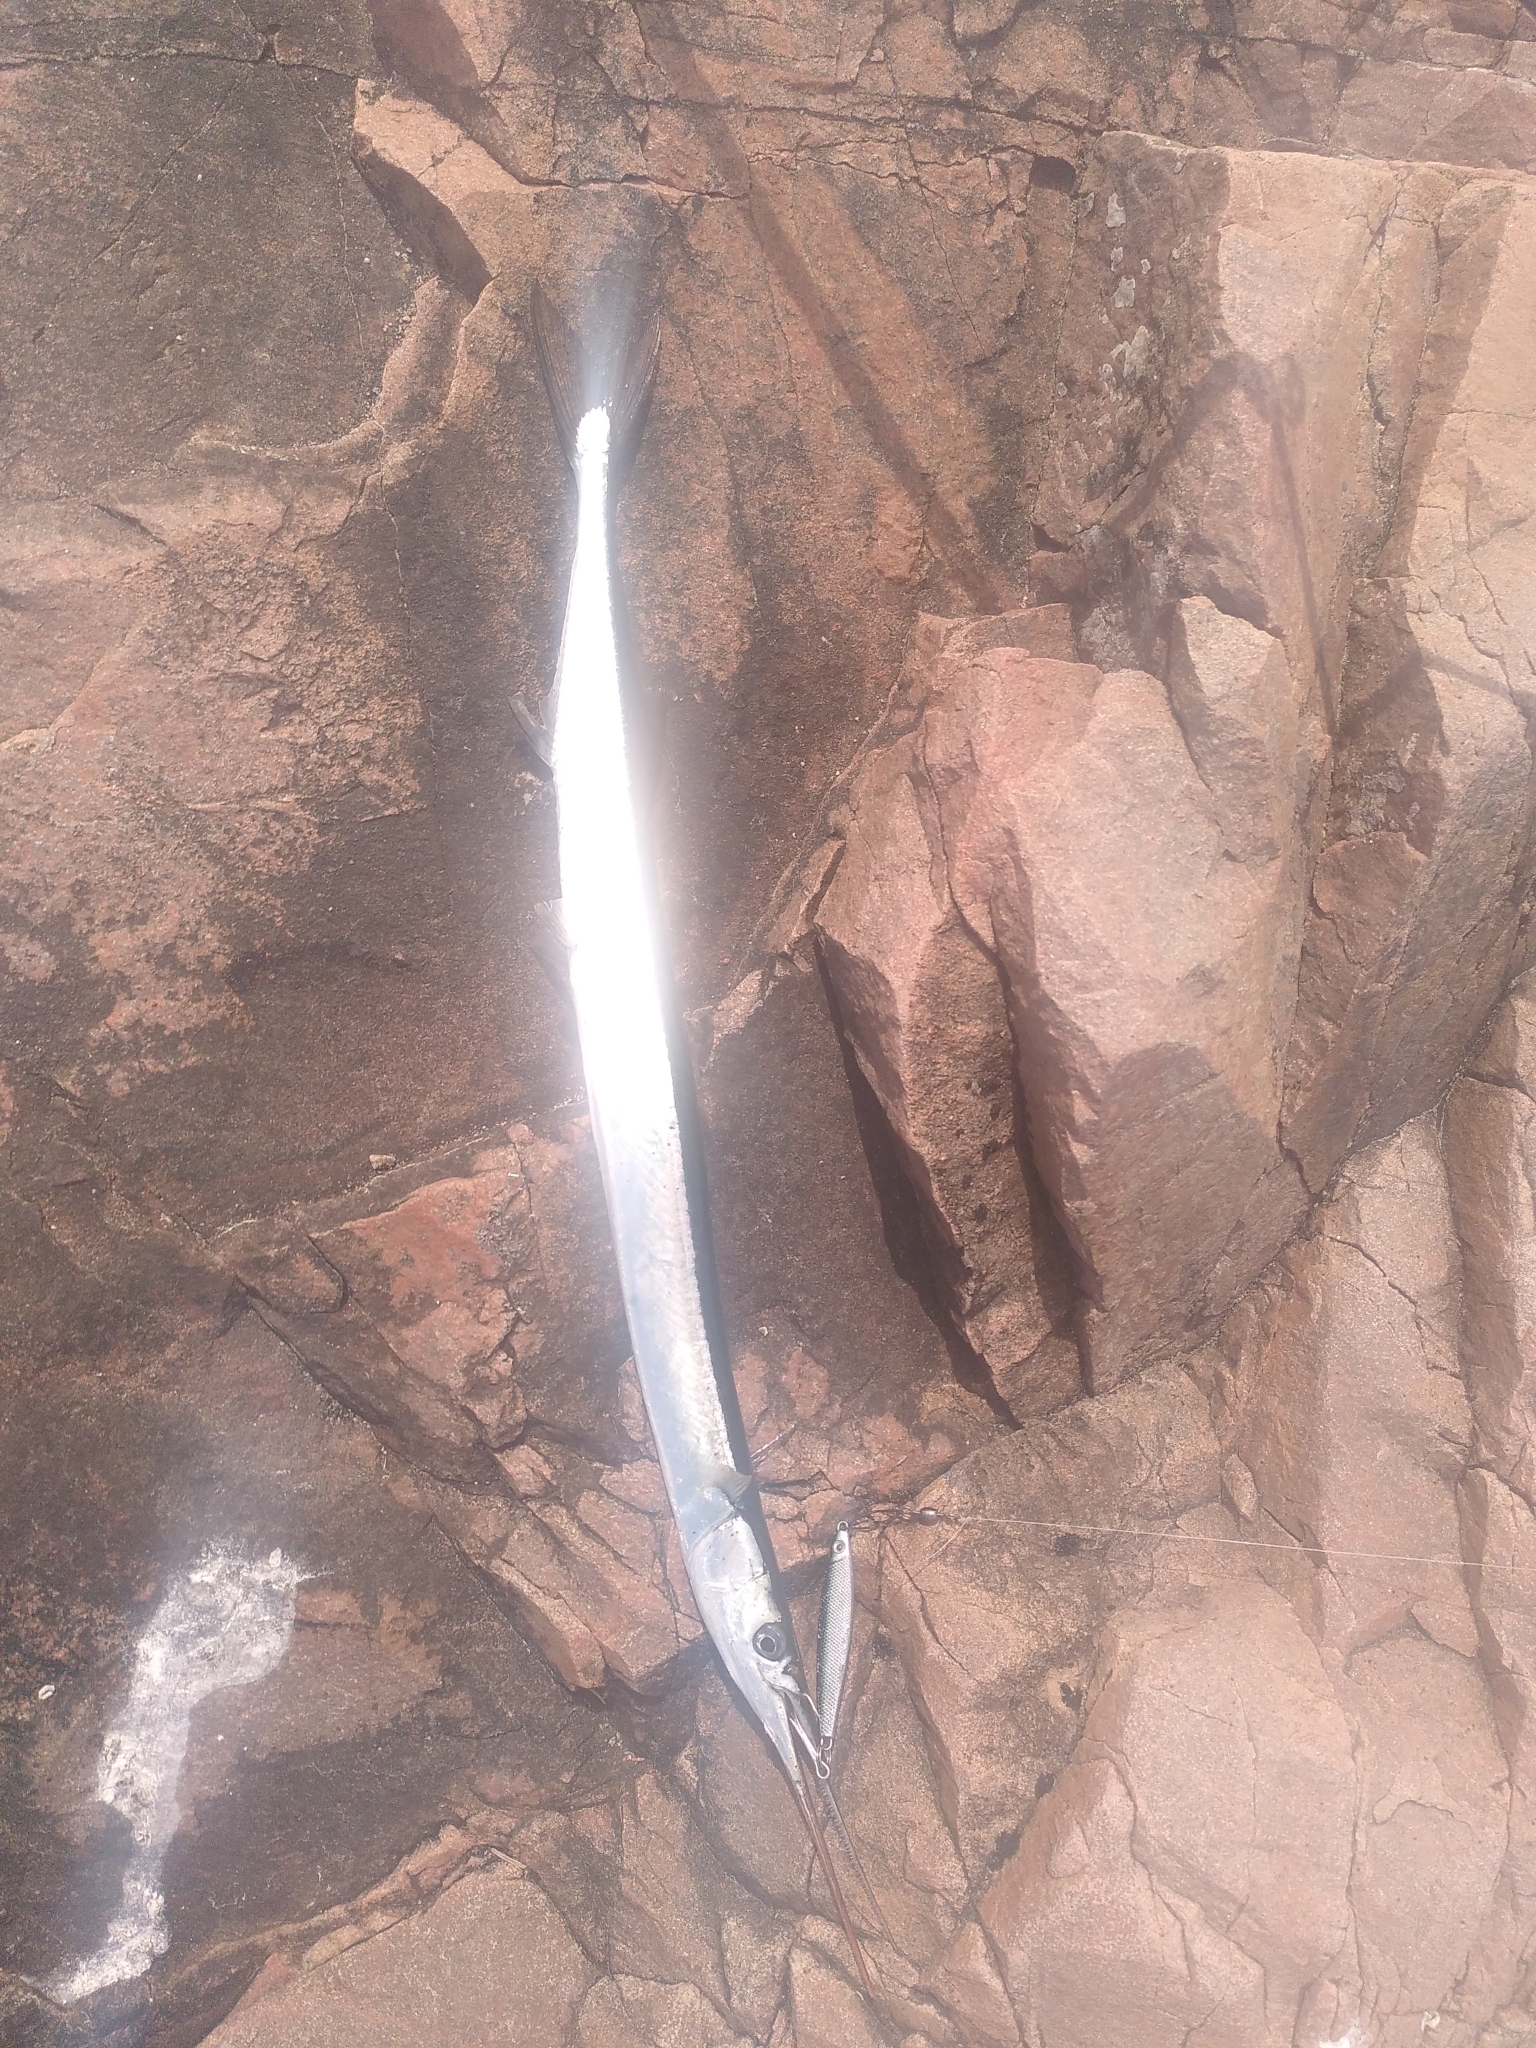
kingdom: Animalia
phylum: Chordata
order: Beloniformes
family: Belonidae
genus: Belone
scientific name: Belone belone
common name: Garfish
